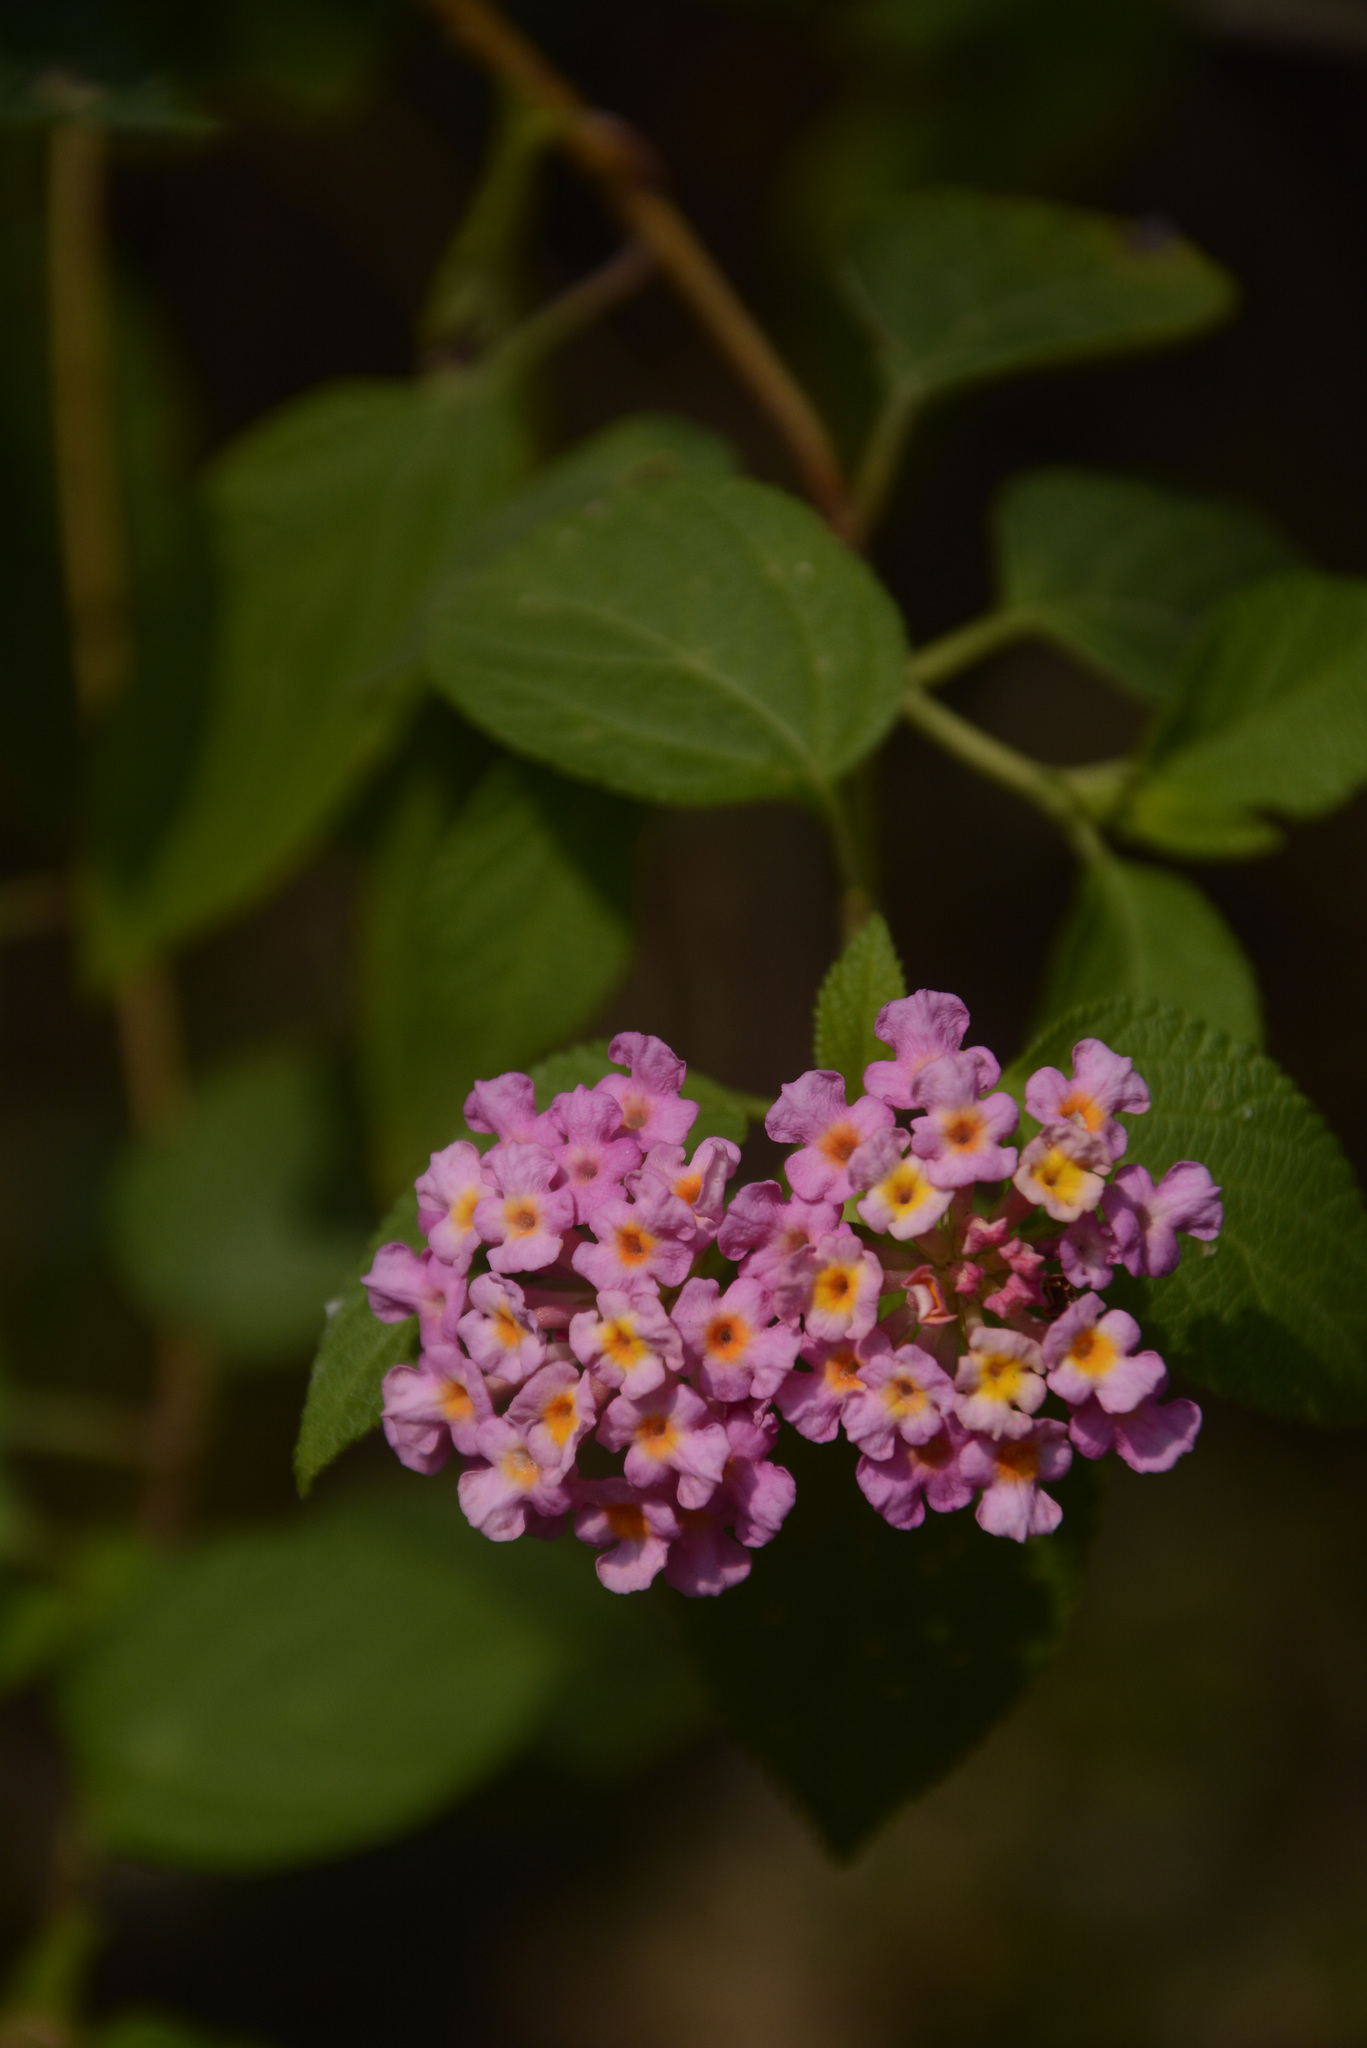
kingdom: Plantae
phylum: Tracheophyta
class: Magnoliopsida
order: Lamiales
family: Verbenaceae
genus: Lantana
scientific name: Lantana camara
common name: Lantana
